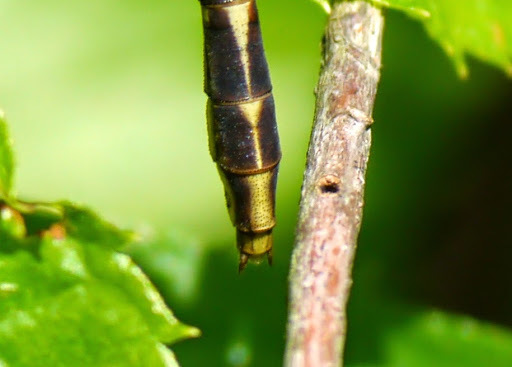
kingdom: Animalia
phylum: Arthropoda
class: Insecta
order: Odonata
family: Gomphidae
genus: Phanogomphus
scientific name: Phanogomphus exilis
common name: Lancet clubtail
